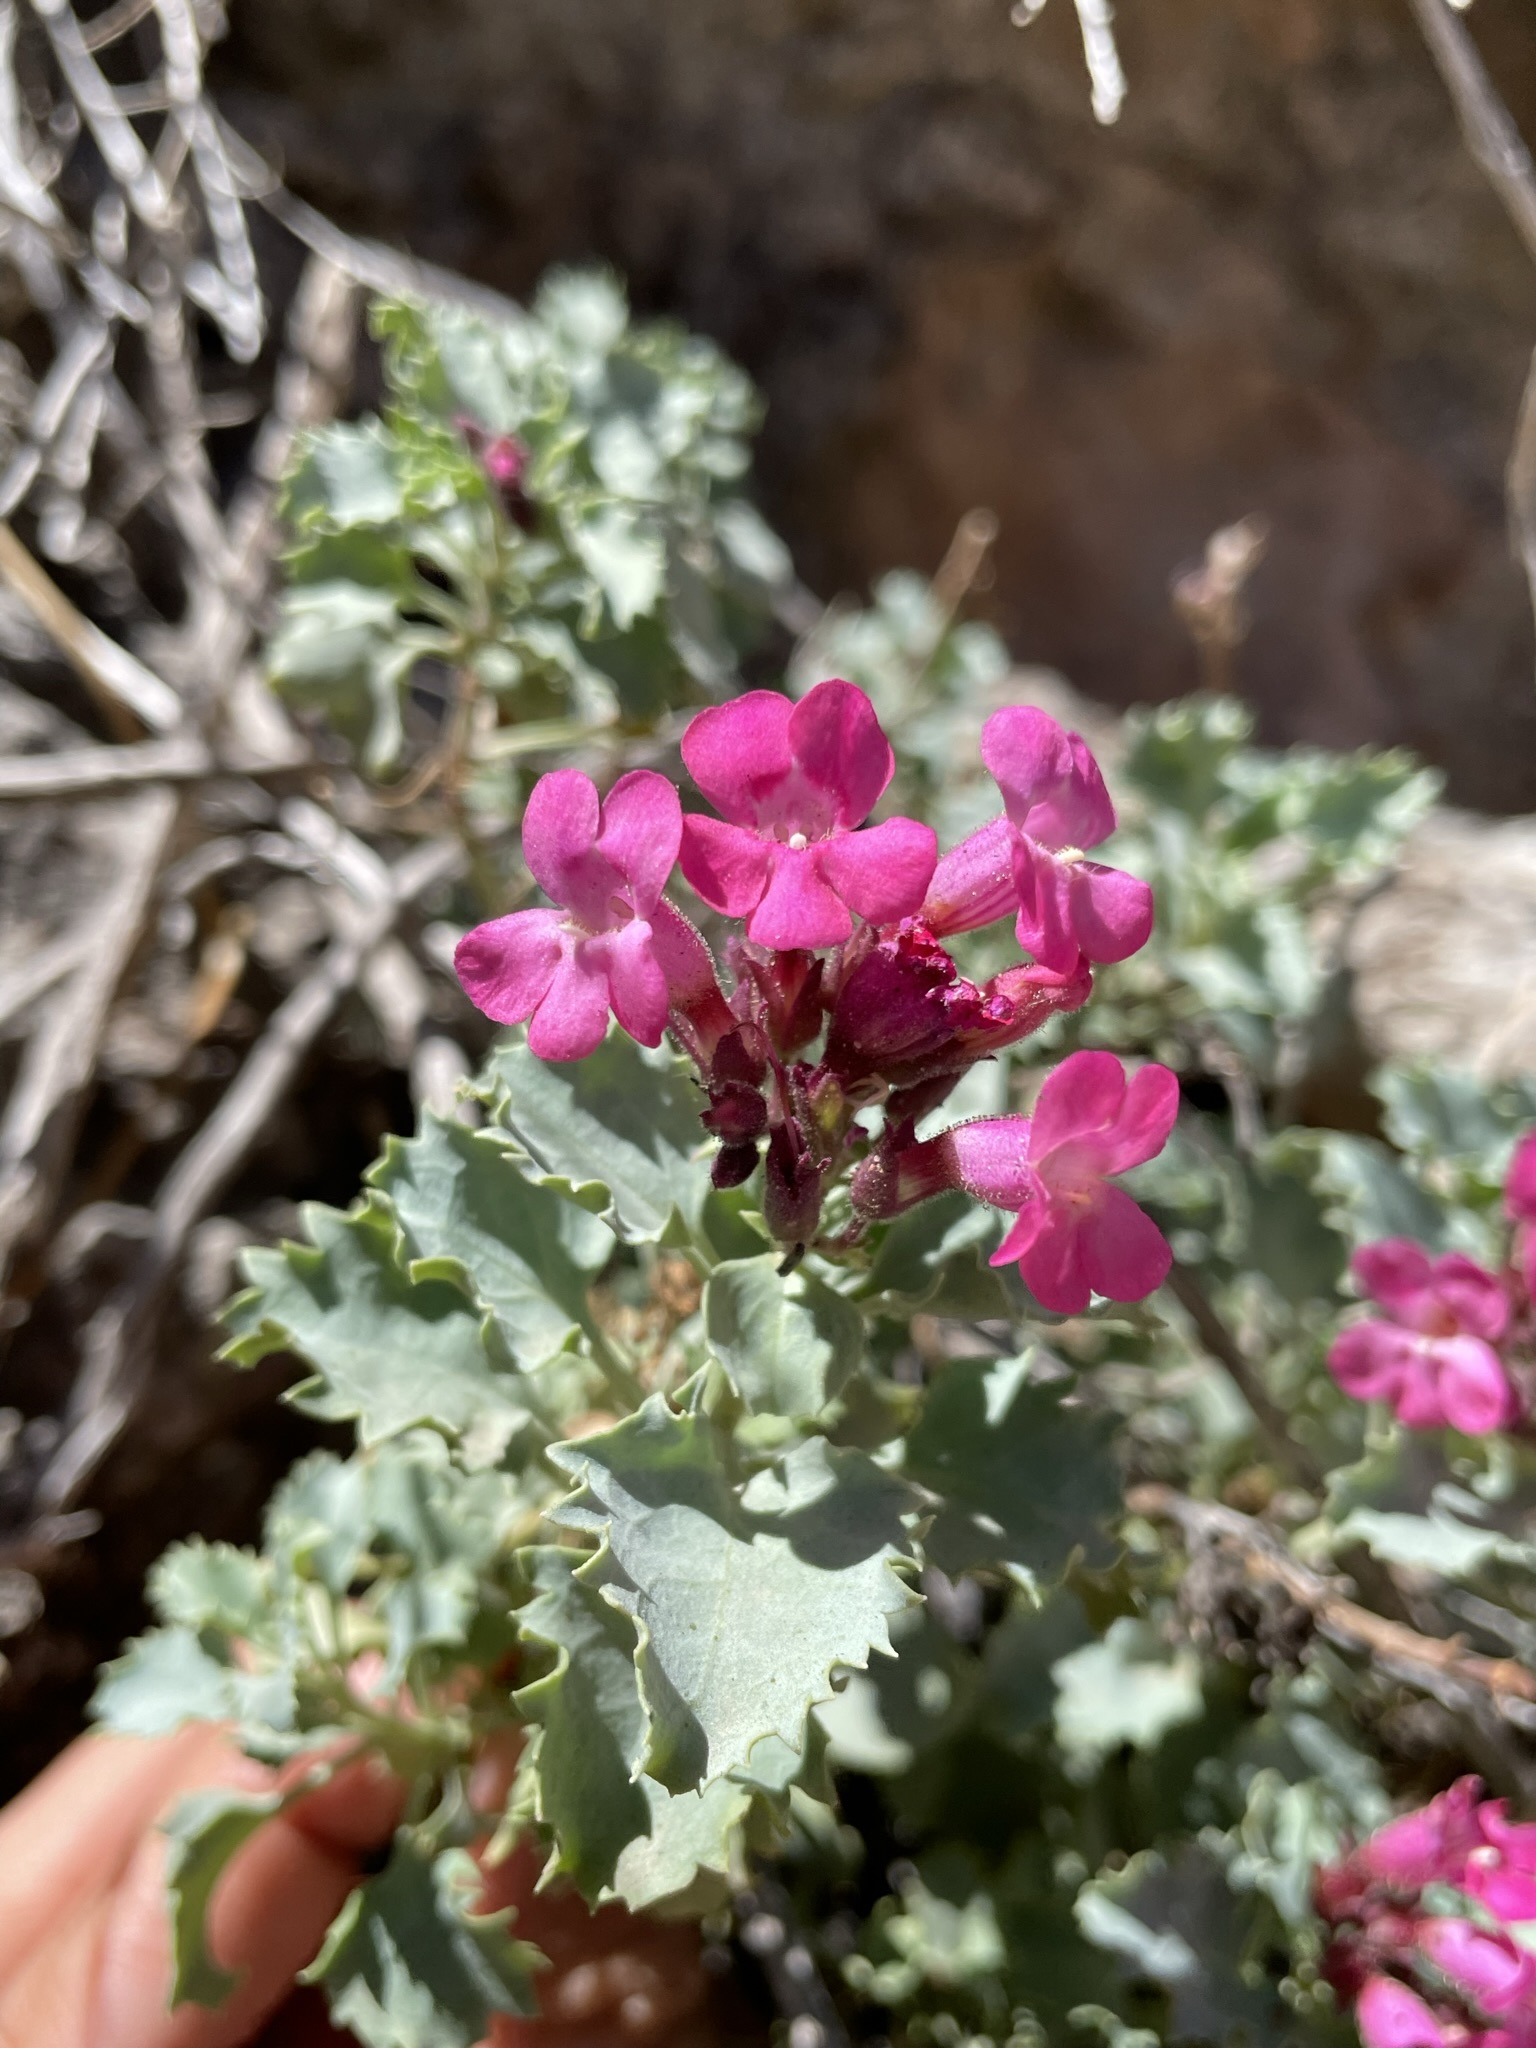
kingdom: Plantae
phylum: Tracheophyta
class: Magnoliopsida
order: Lamiales
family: Plantaginaceae
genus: Penstemon
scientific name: Penstemon petiolatus
